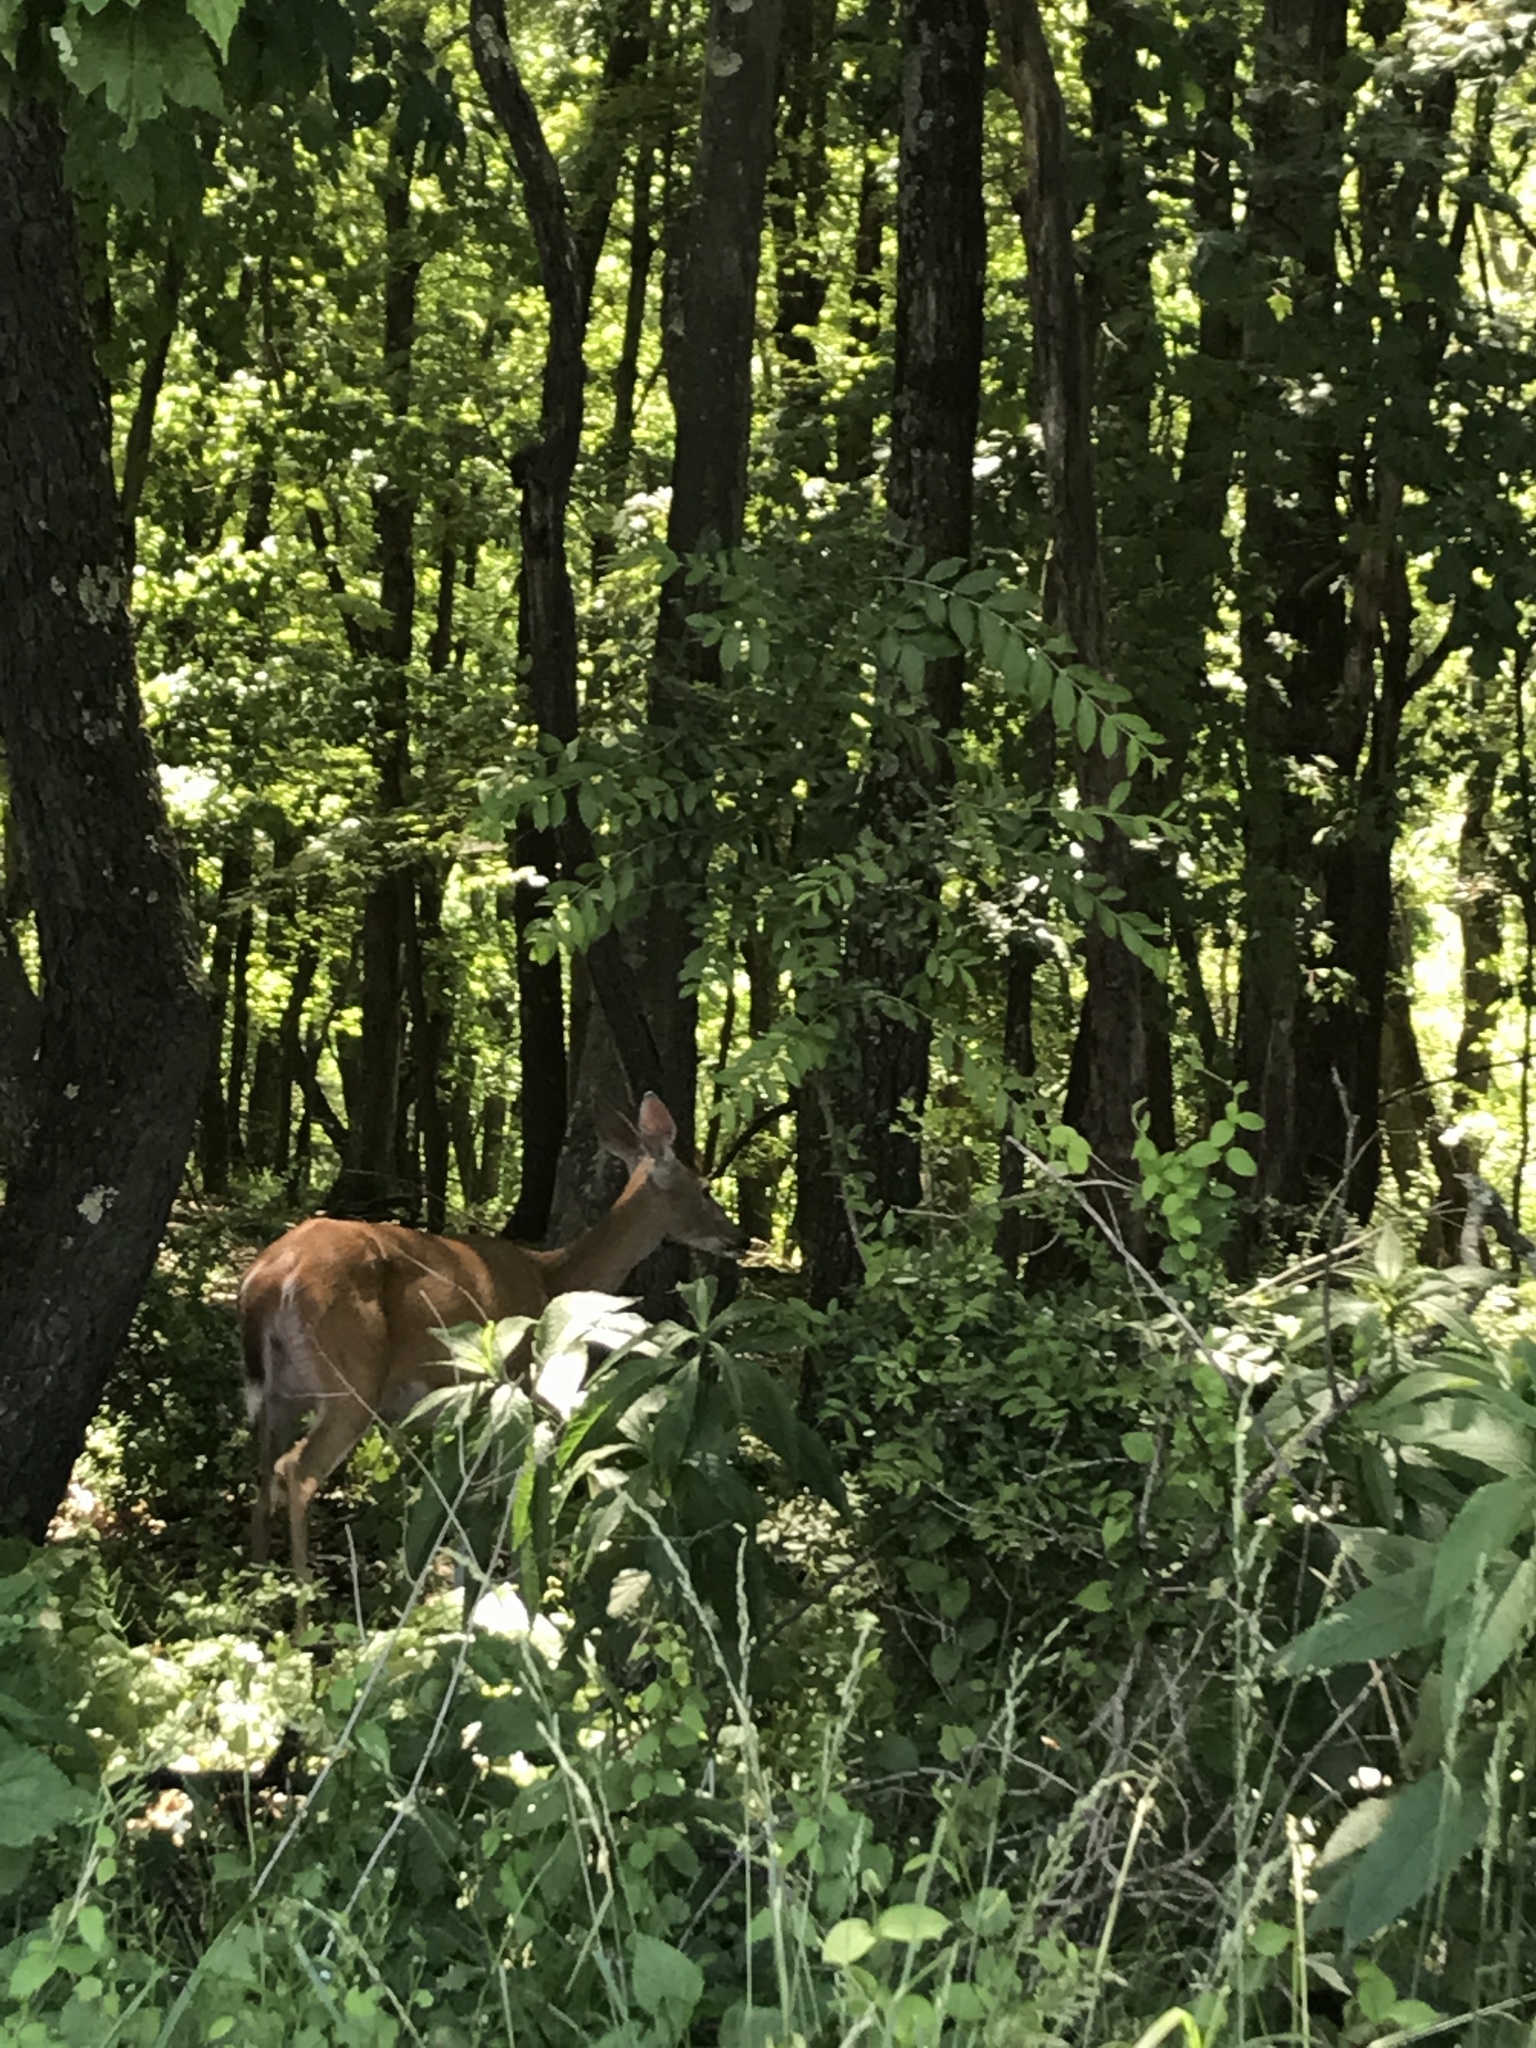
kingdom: Animalia
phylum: Chordata
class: Mammalia
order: Artiodactyla
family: Cervidae
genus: Odocoileus
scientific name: Odocoileus virginianus
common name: White-tailed deer
